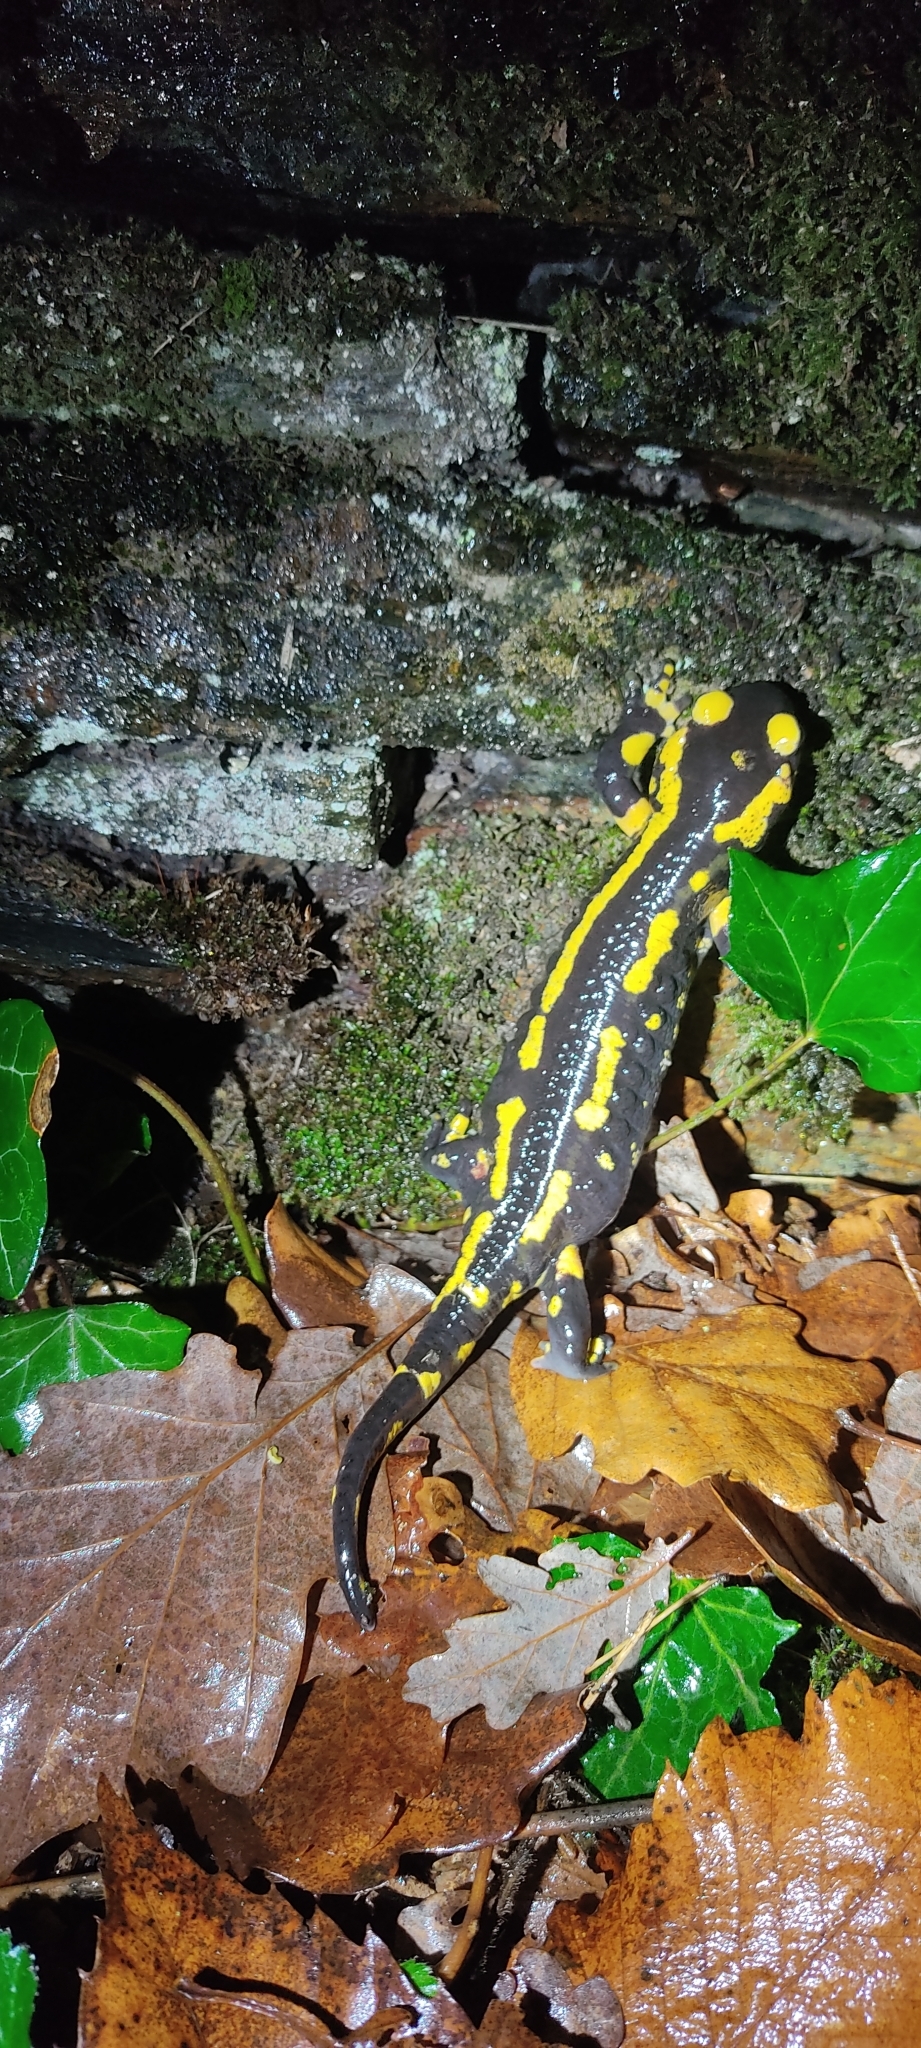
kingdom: Animalia
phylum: Chordata
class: Amphibia
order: Caudata
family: Salamandridae
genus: Salamandra
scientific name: Salamandra salamandra
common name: Fire salamander
